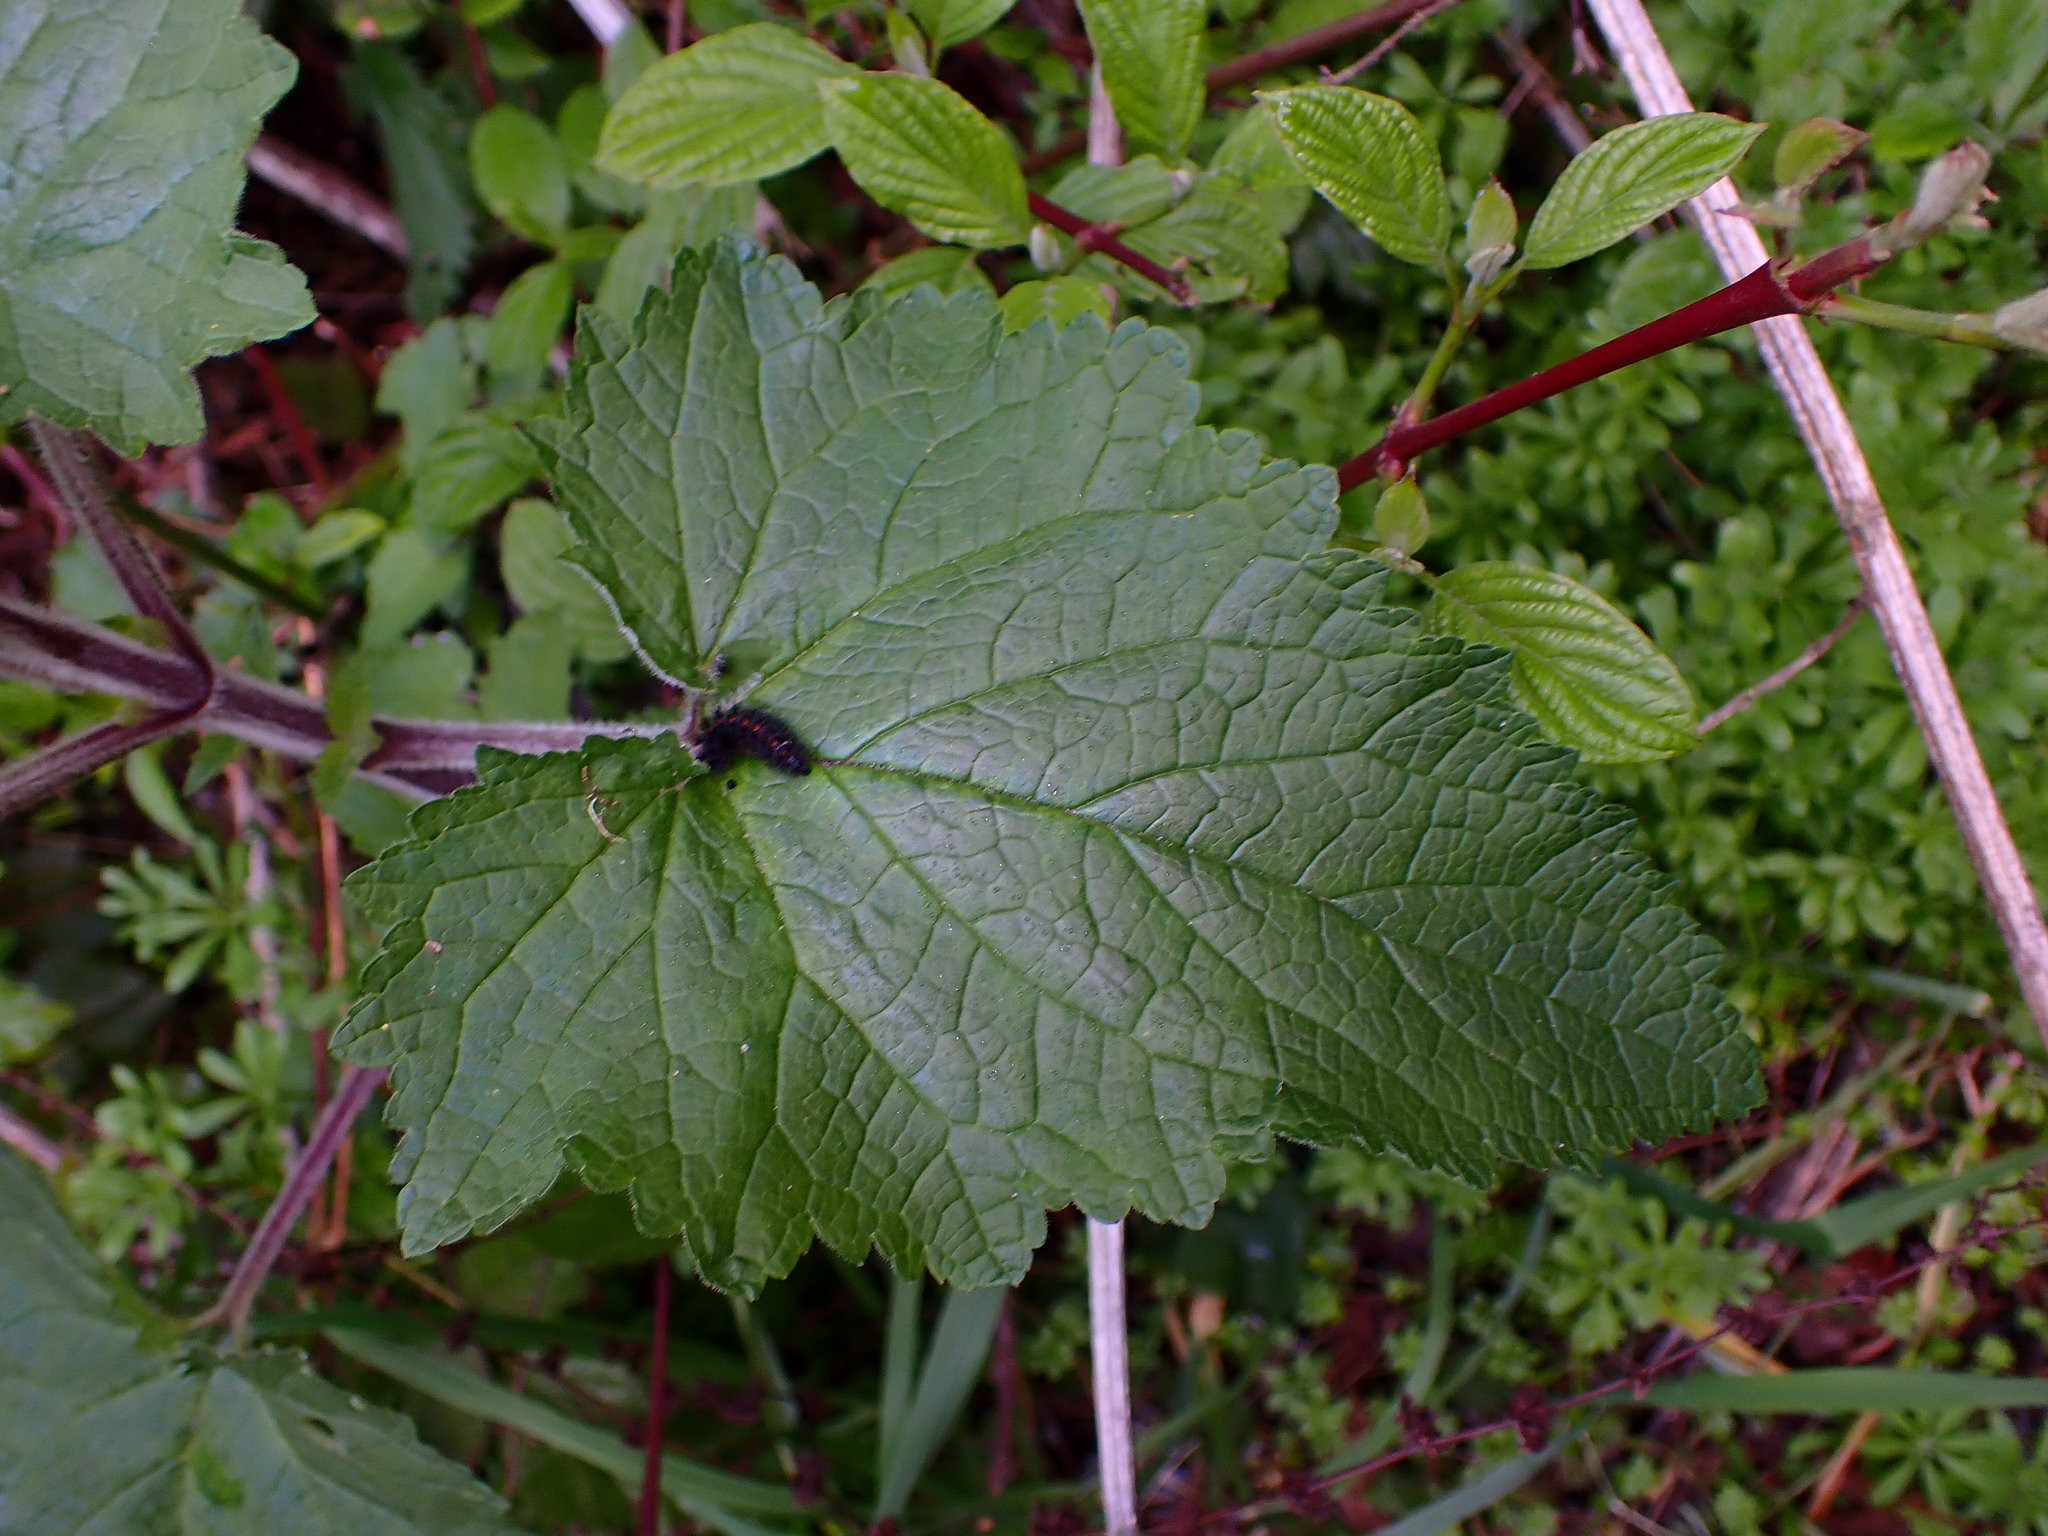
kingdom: Plantae
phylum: Tracheophyta
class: Magnoliopsida
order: Lamiales
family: Scrophulariaceae
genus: Scrophularia
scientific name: Scrophularia californica
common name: California figwort
